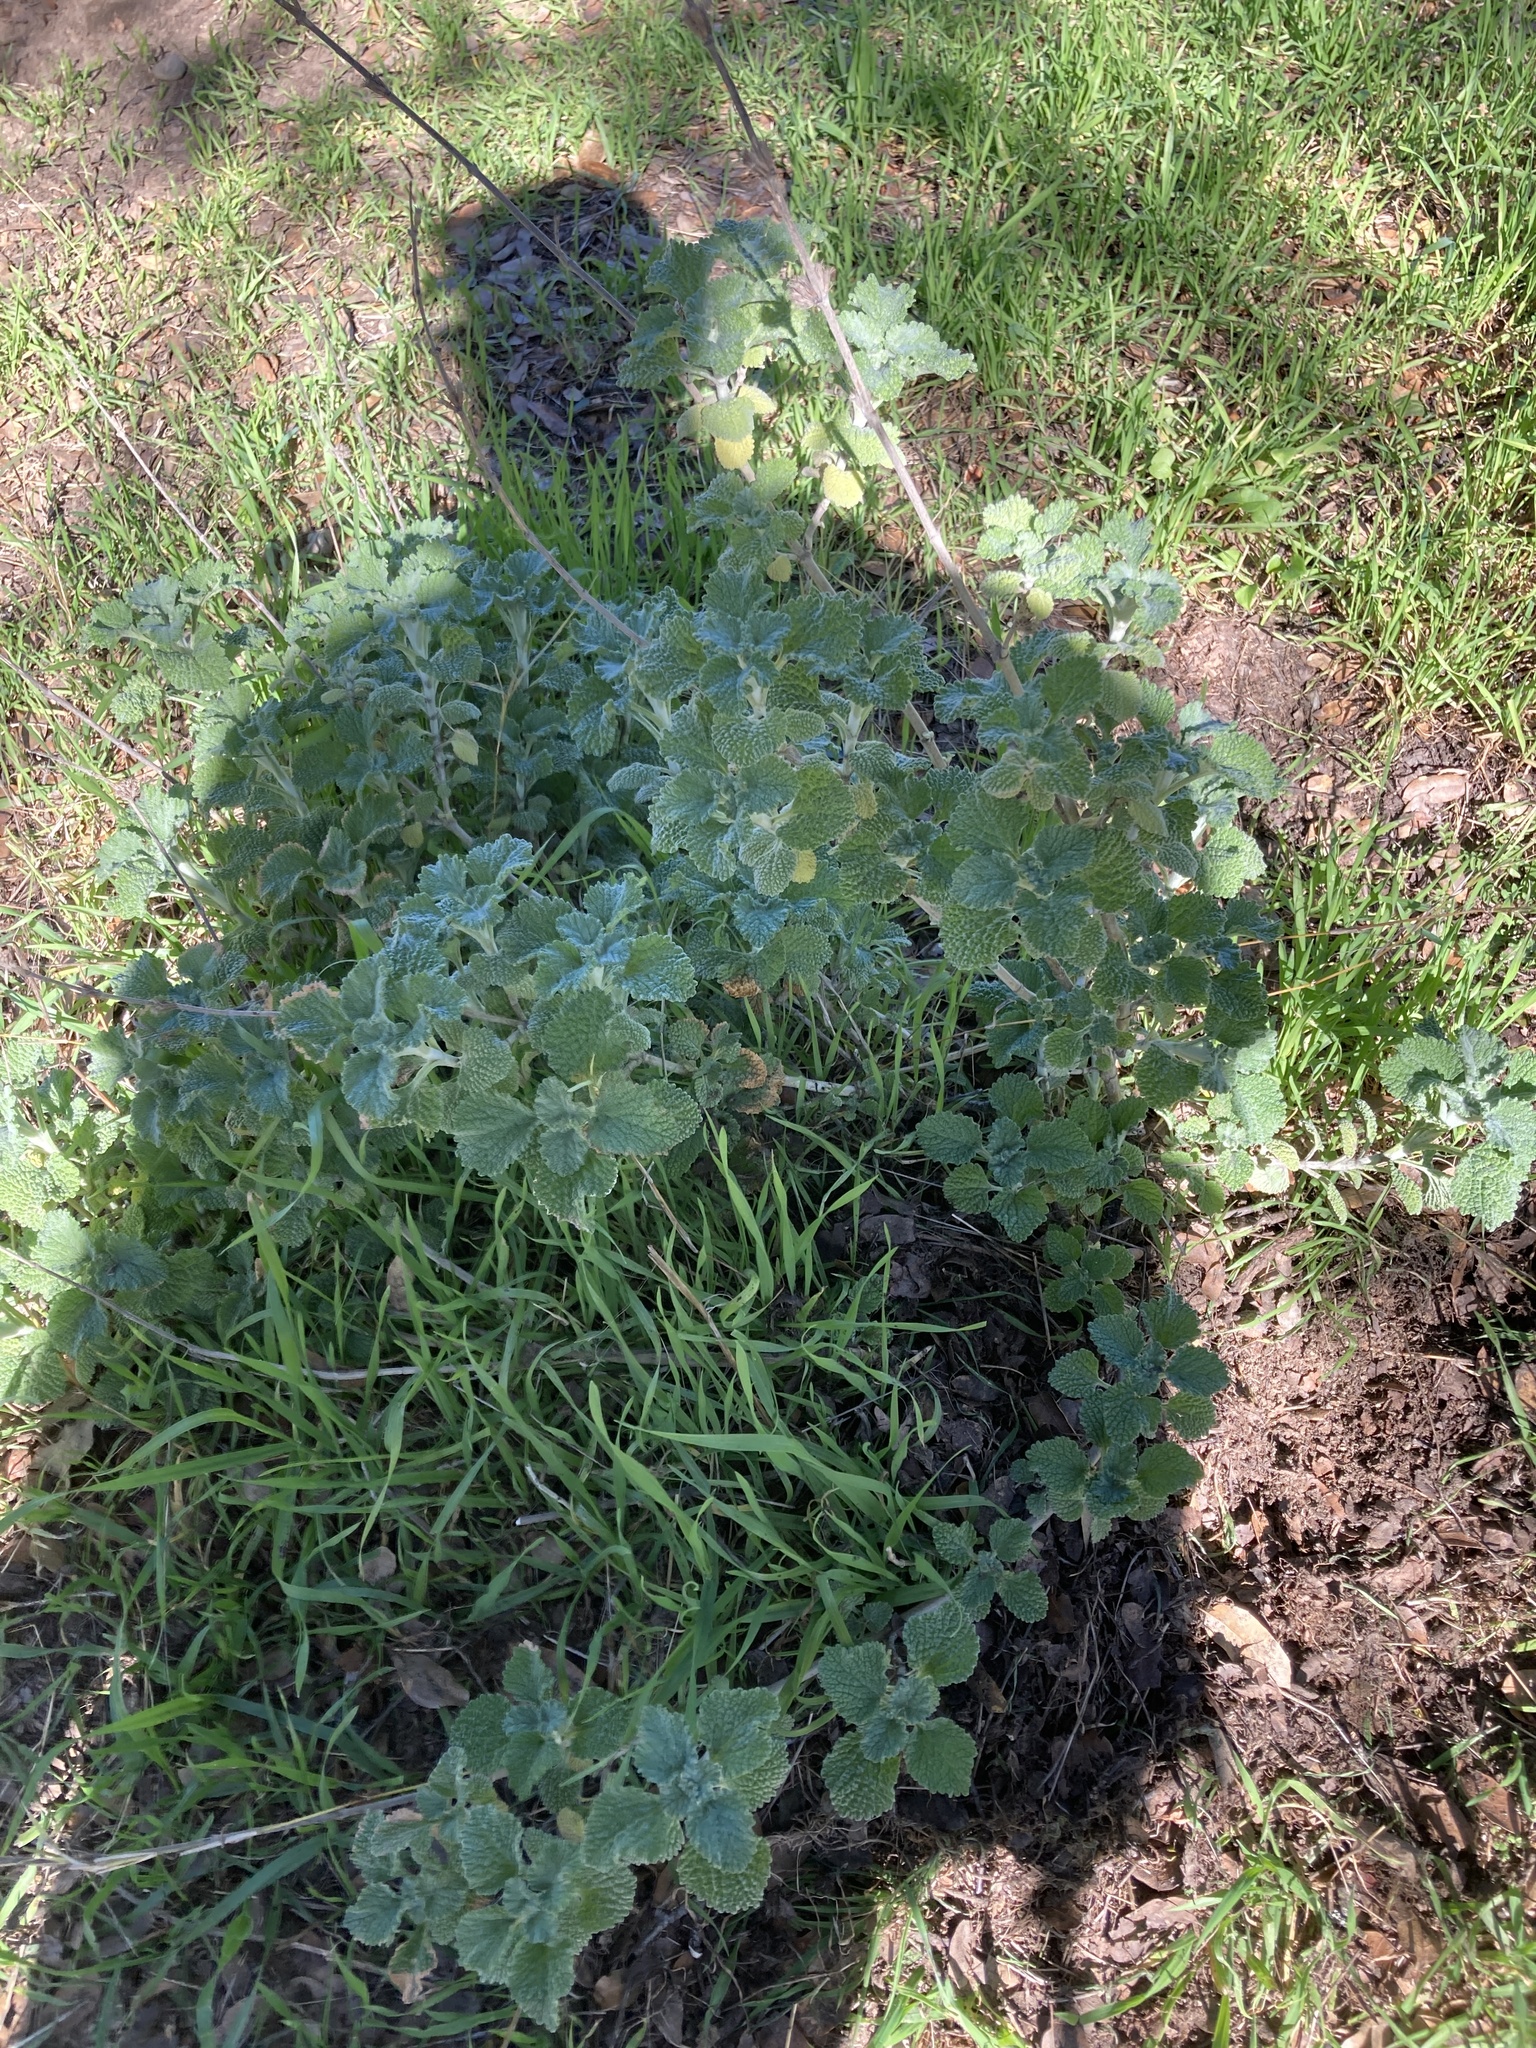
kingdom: Plantae
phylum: Tracheophyta
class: Magnoliopsida
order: Lamiales
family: Lamiaceae
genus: Marrubium
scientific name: Marrubium vulgare
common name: Horehound
